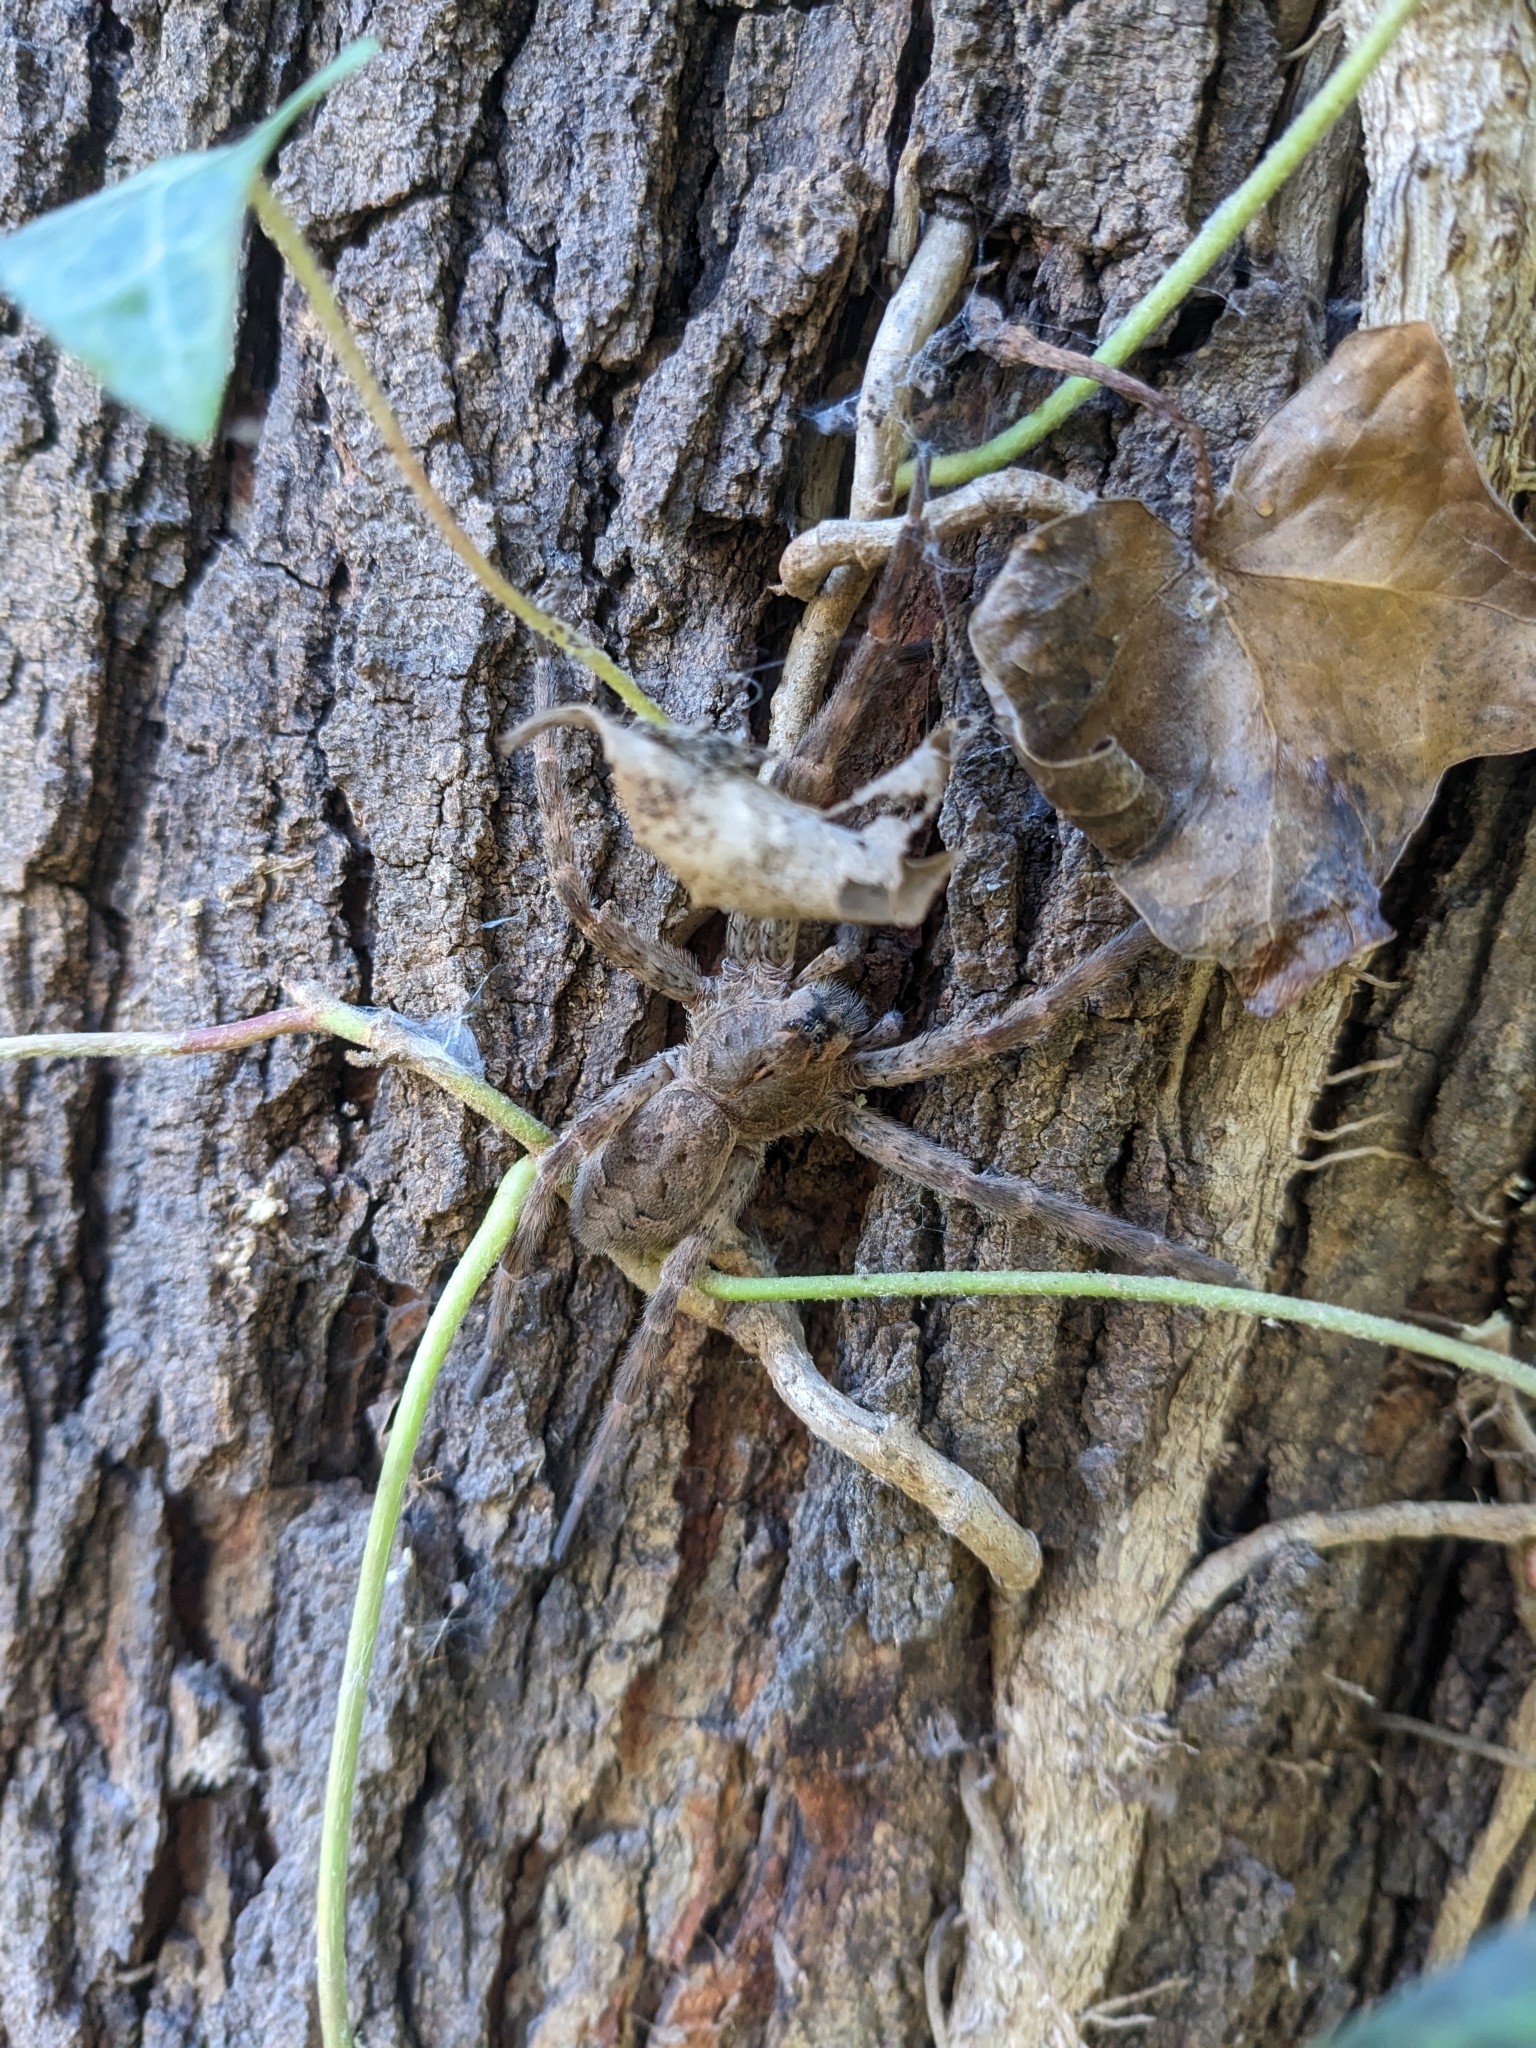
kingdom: Animalia
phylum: Arthropoda
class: Arachnida
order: Araneae
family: Pisauridae
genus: Dolomedes
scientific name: Dolomedes tenebrosus
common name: Dark fishing spider
